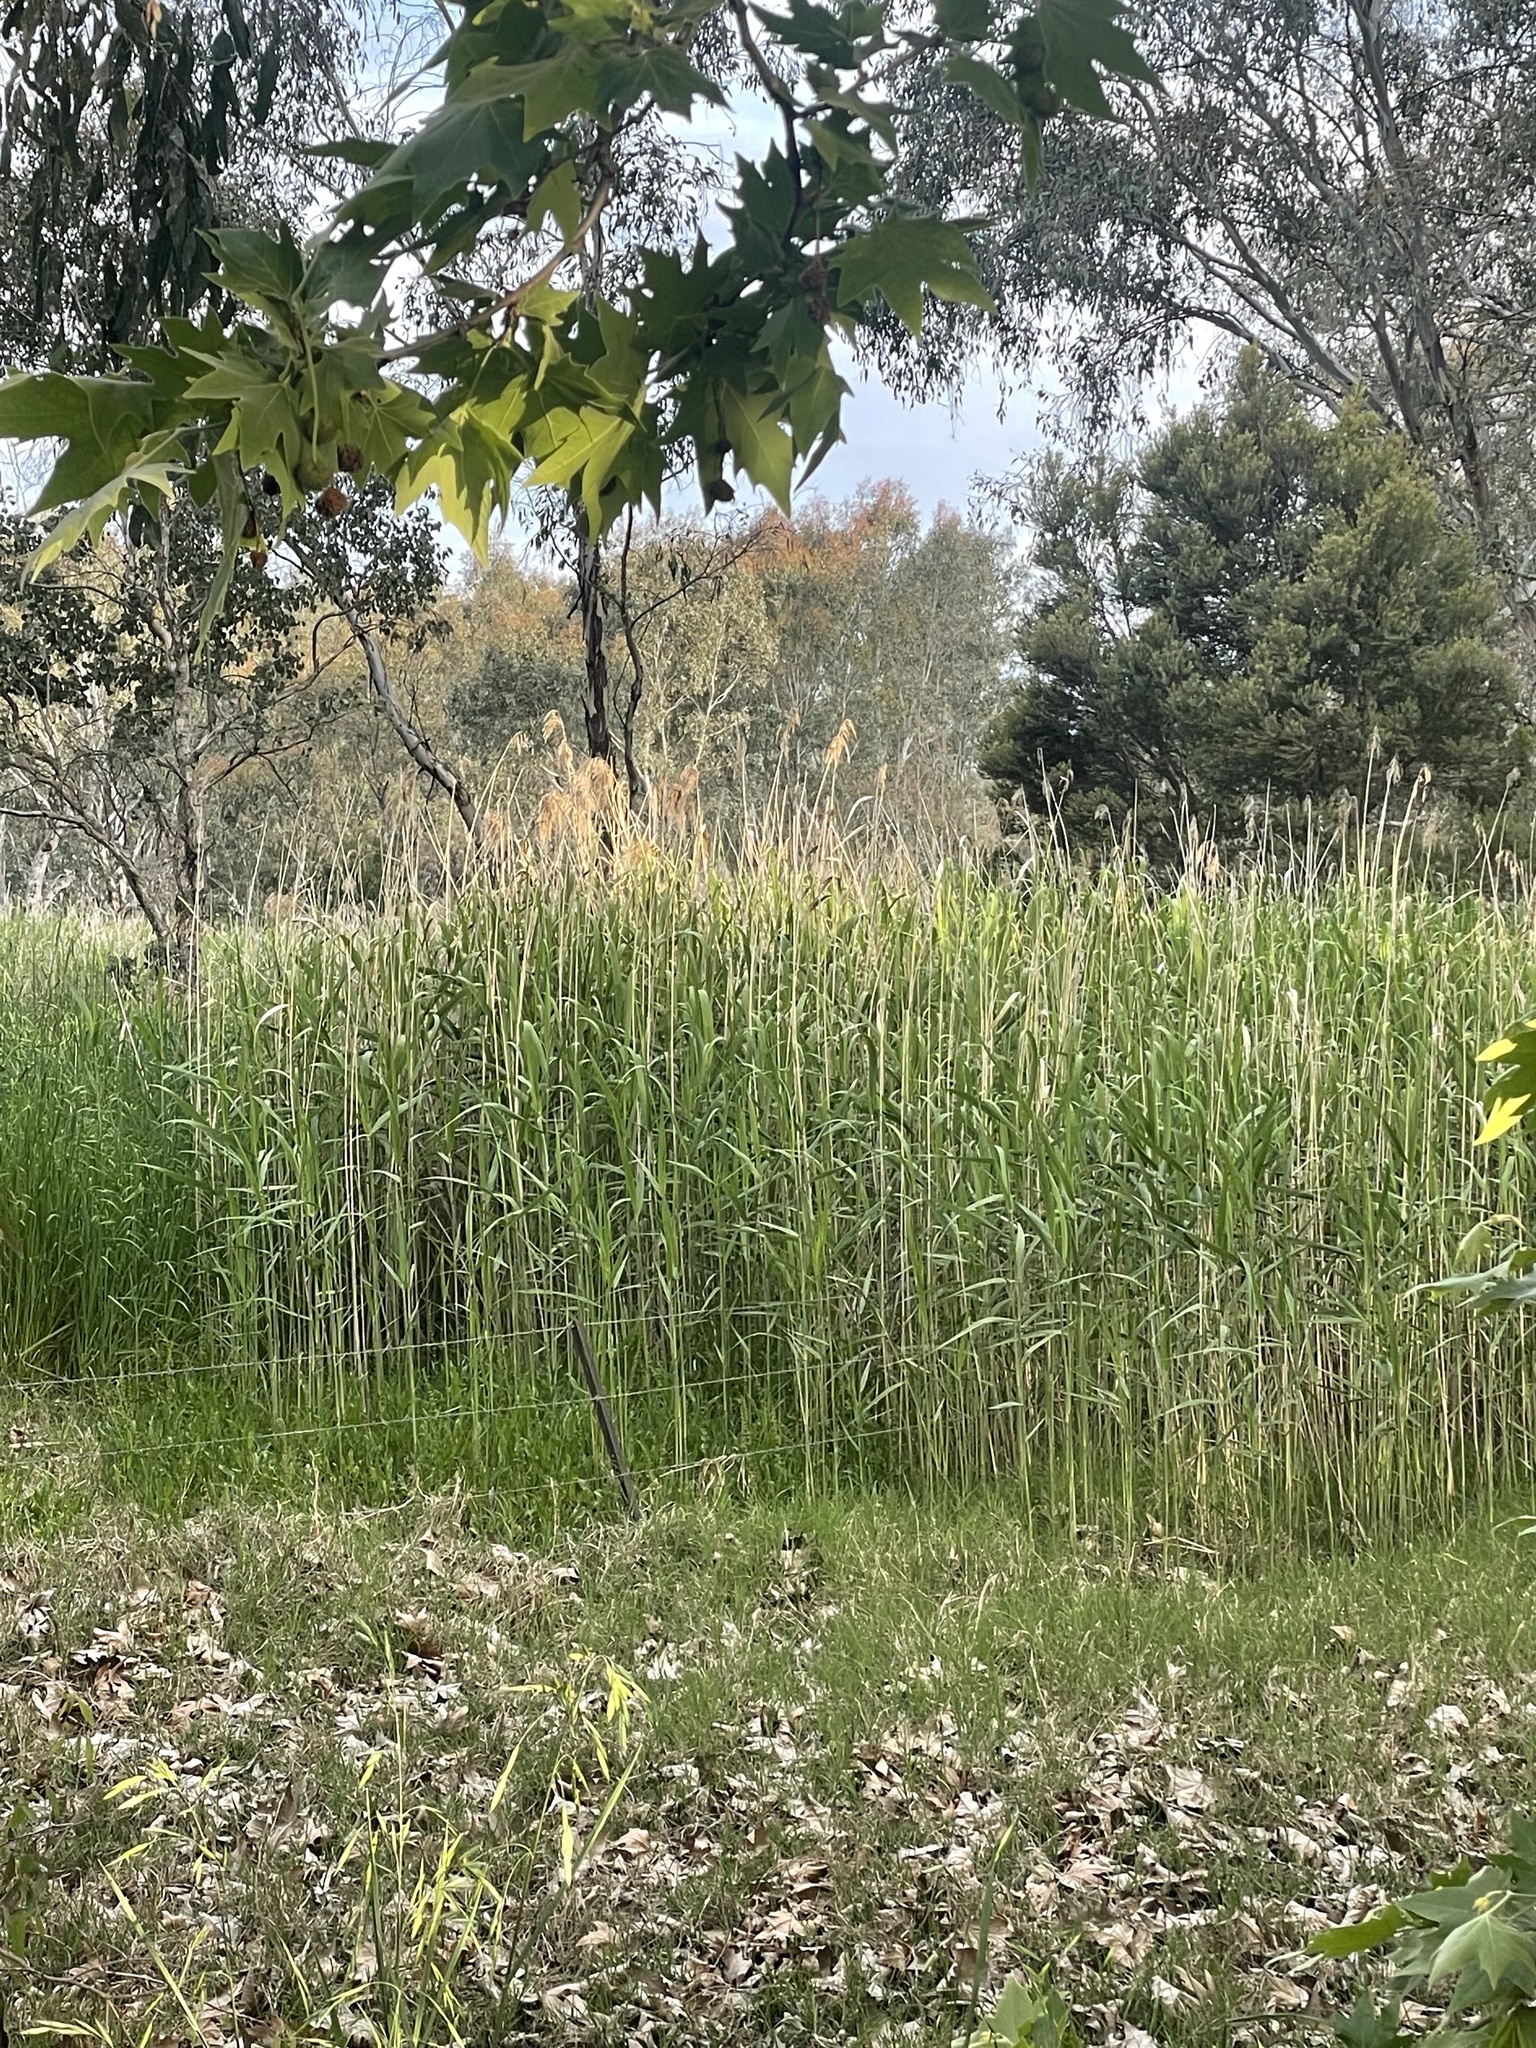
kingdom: Plantae
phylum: Tracheophyta
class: Liliopsida
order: Poales
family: Poaceae
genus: Phragmites
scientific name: Phragmites australis
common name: Common reed
